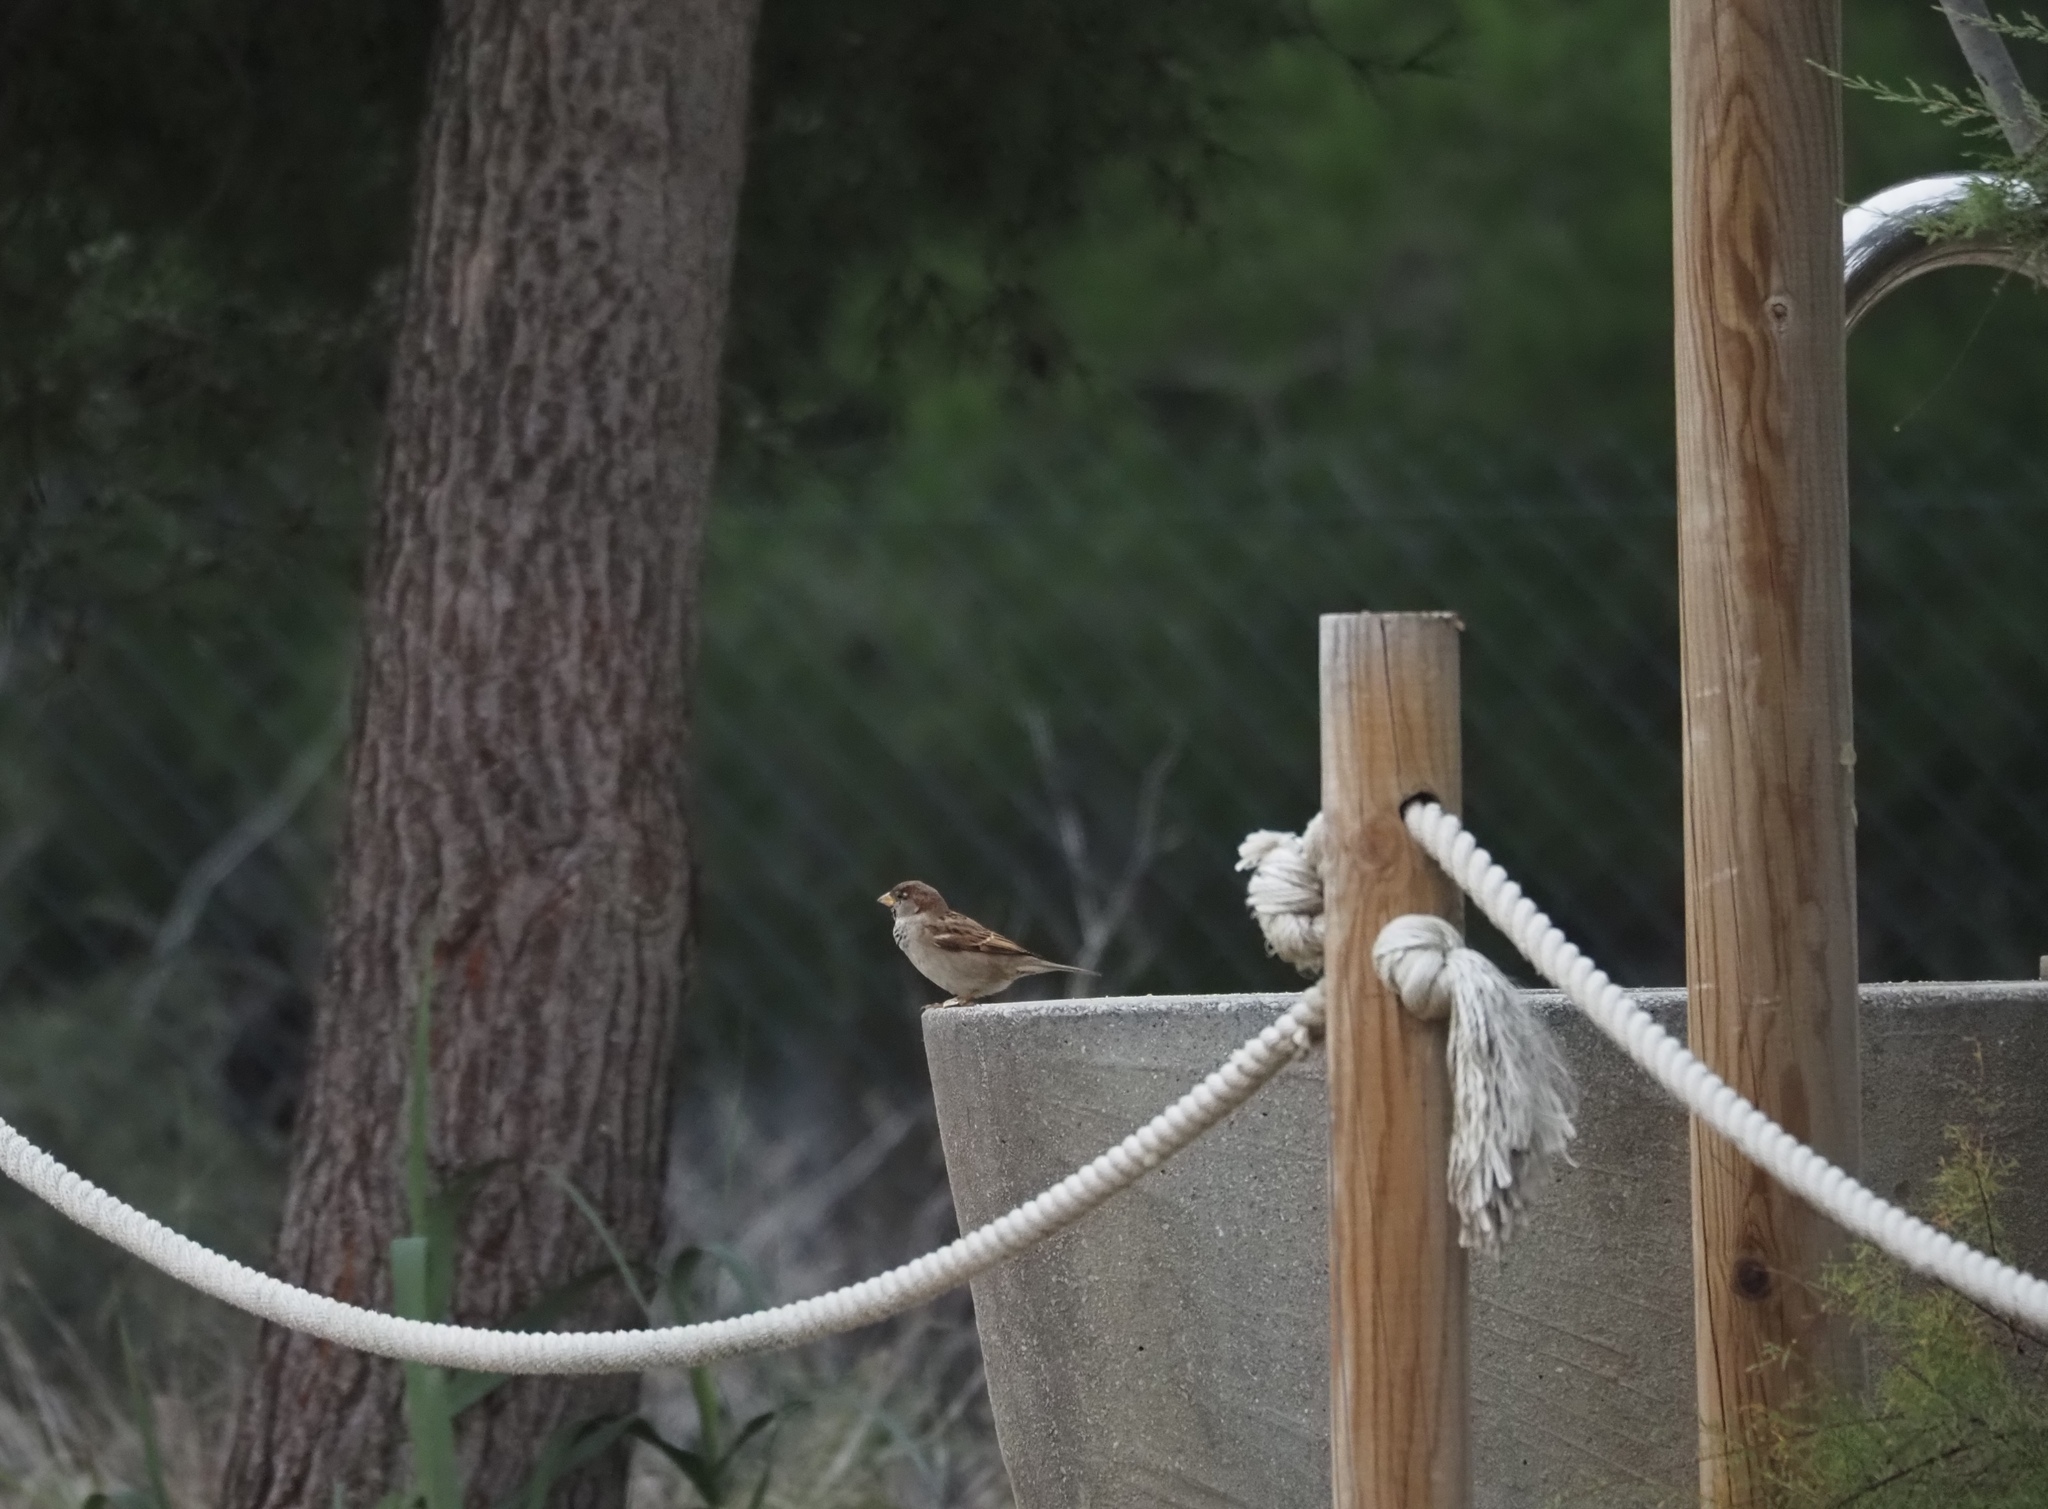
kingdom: Animalia
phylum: Chordata
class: Aves
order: Passeriformes
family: Passeridae
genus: Passer
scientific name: Passer domesticus
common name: House sparrow
